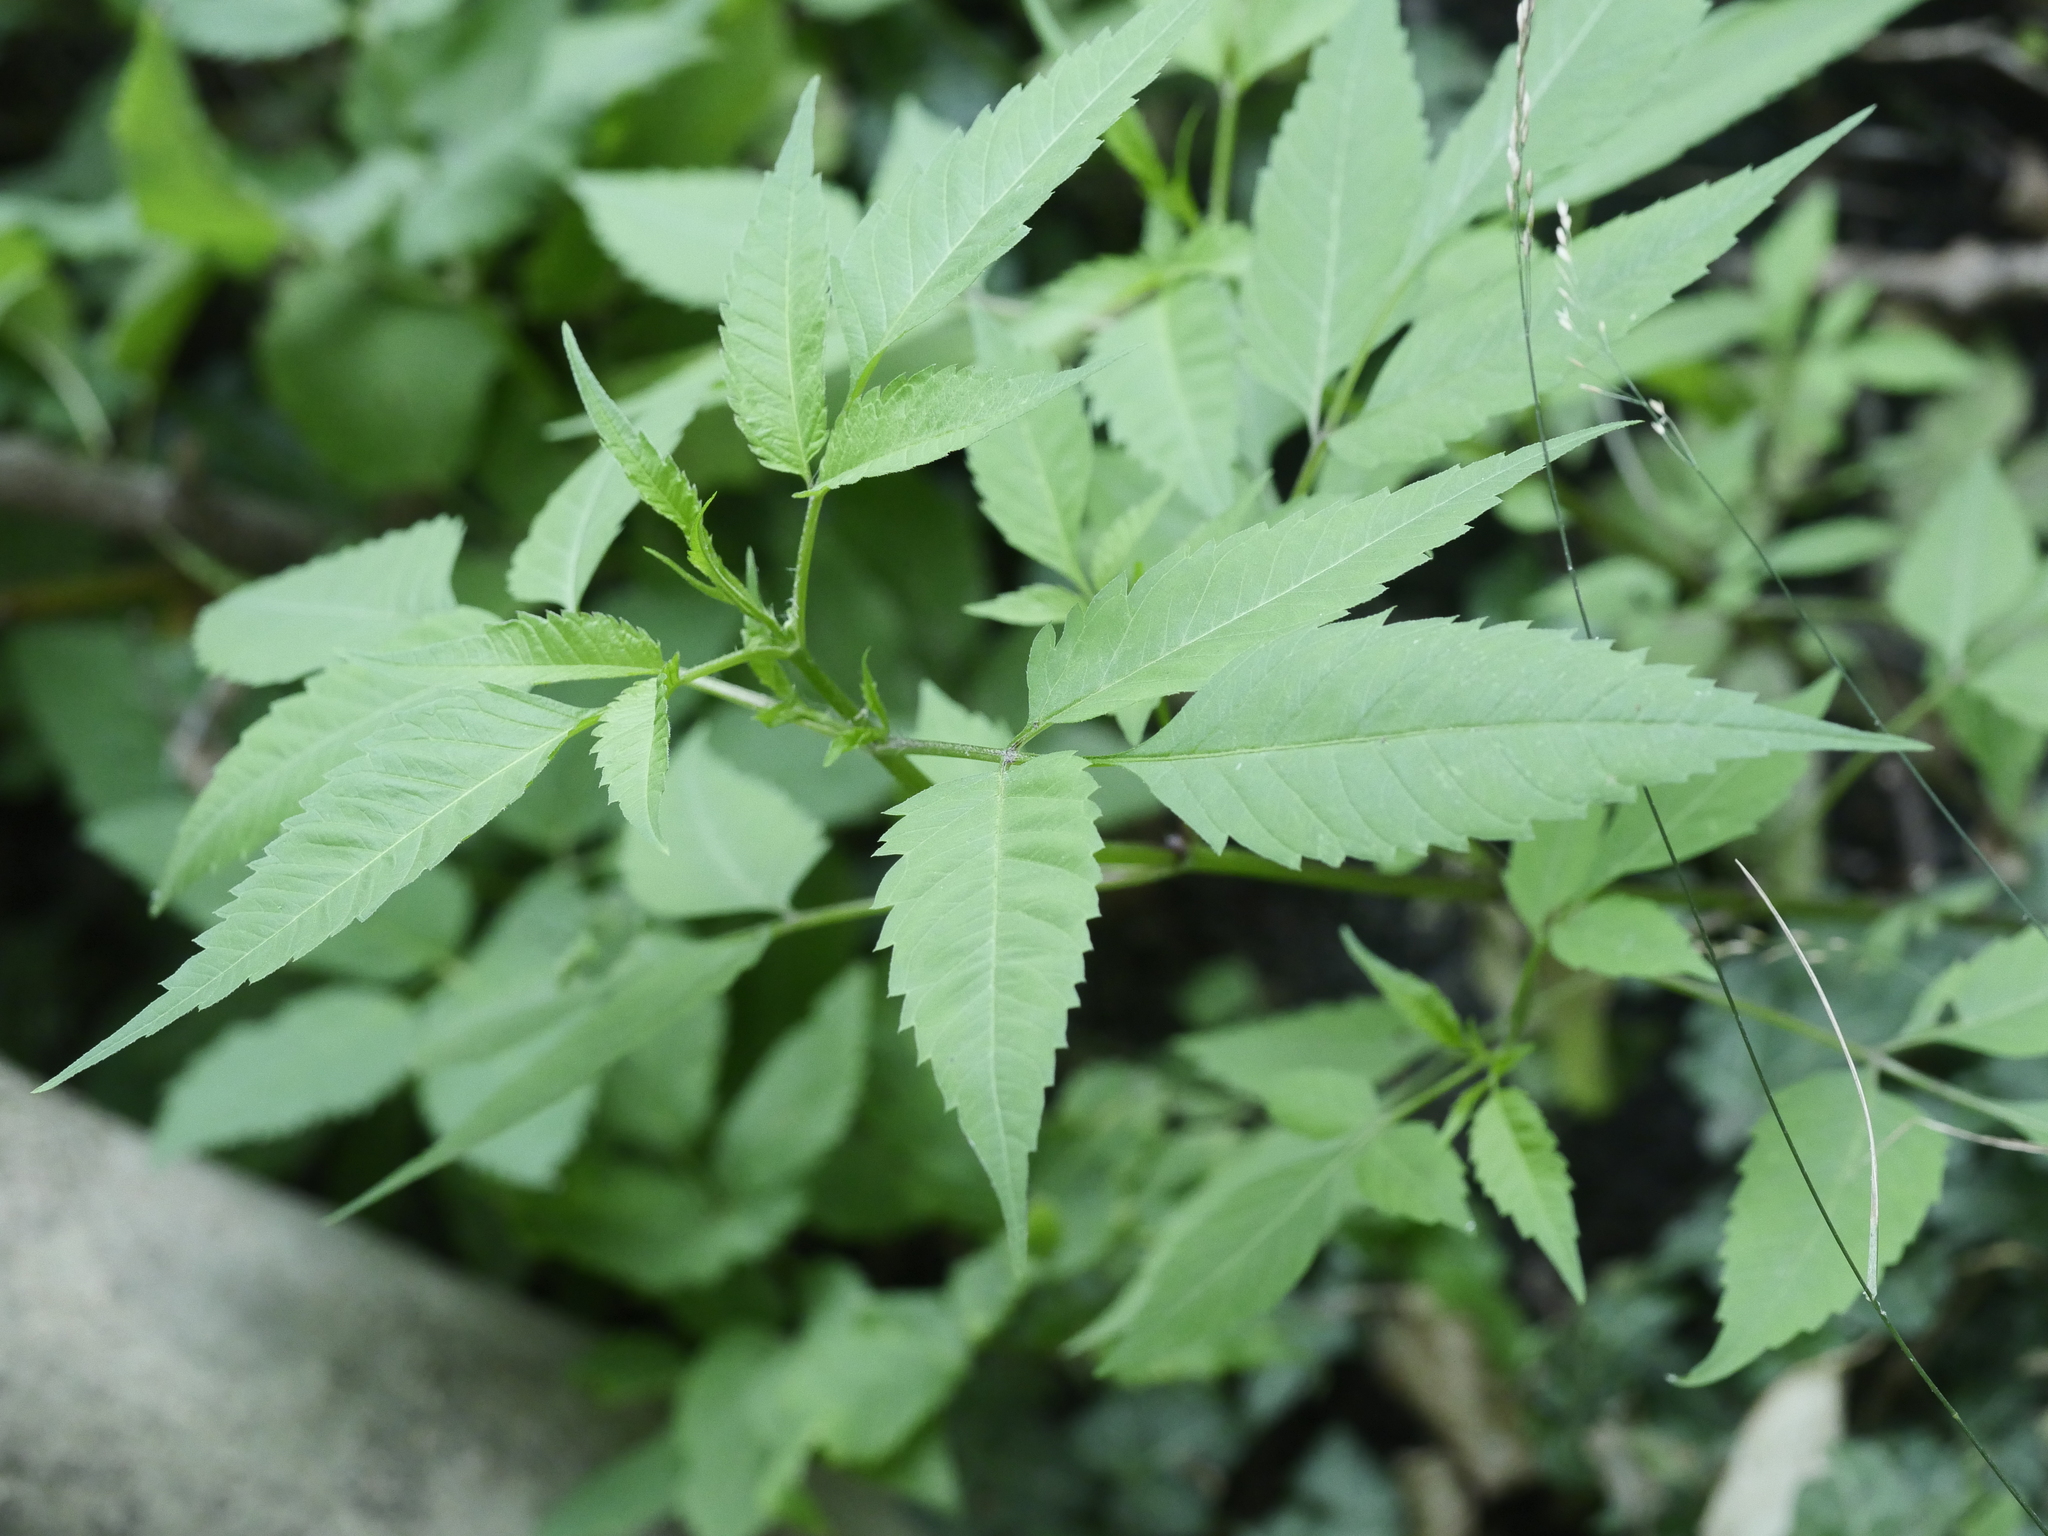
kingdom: Plantae
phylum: Tracheophyta
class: Magnoliopsida
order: Asterales
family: Asteraceae
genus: Bidens
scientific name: Bidens frondosa
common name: Beggarticks
